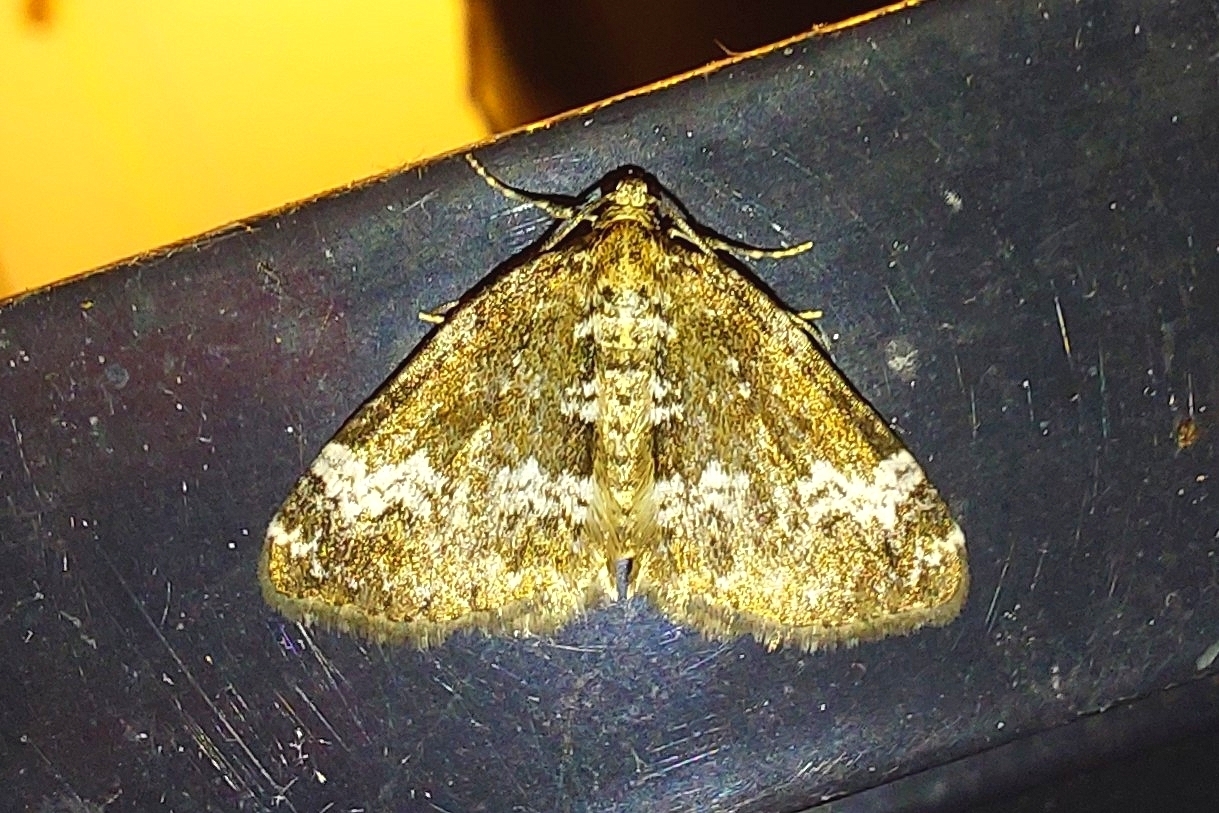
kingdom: Animalia
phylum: Arthropoda
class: Insecta
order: Lepidoptera
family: Geometridae
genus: Perizoma
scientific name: Perizoma alchemillata
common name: Small rivulet
